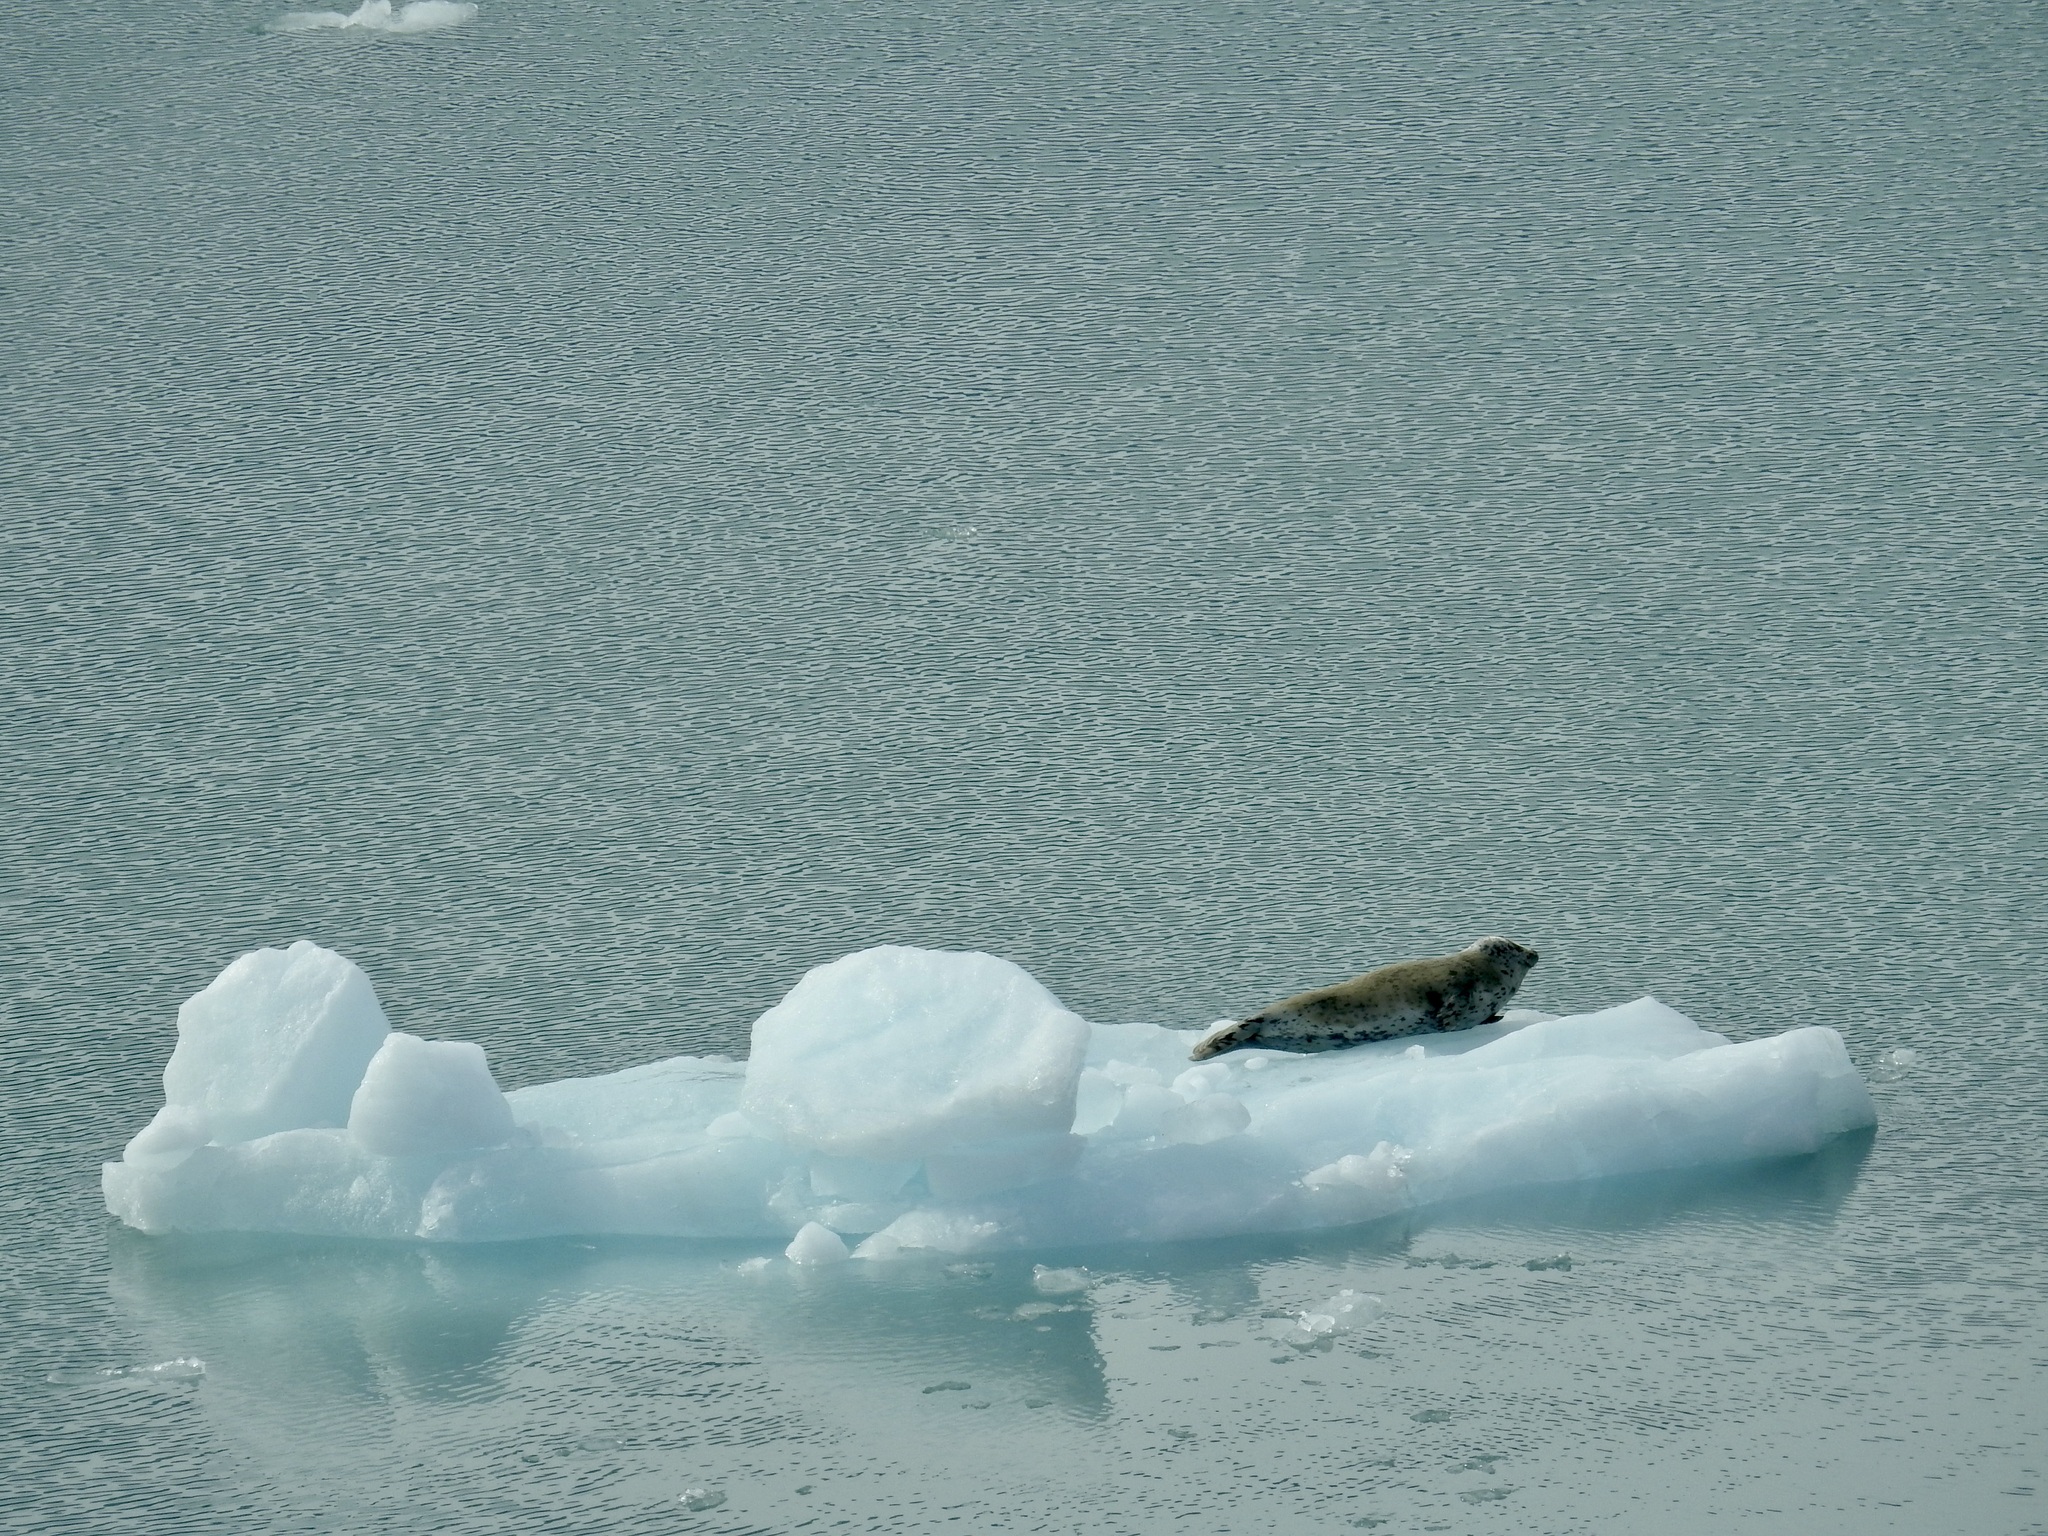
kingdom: Animalia
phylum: Chordata
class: Mammalia
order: Carnivora
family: Phocidae
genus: Phoca
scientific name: Phoca vitulina
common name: Harbor seal
